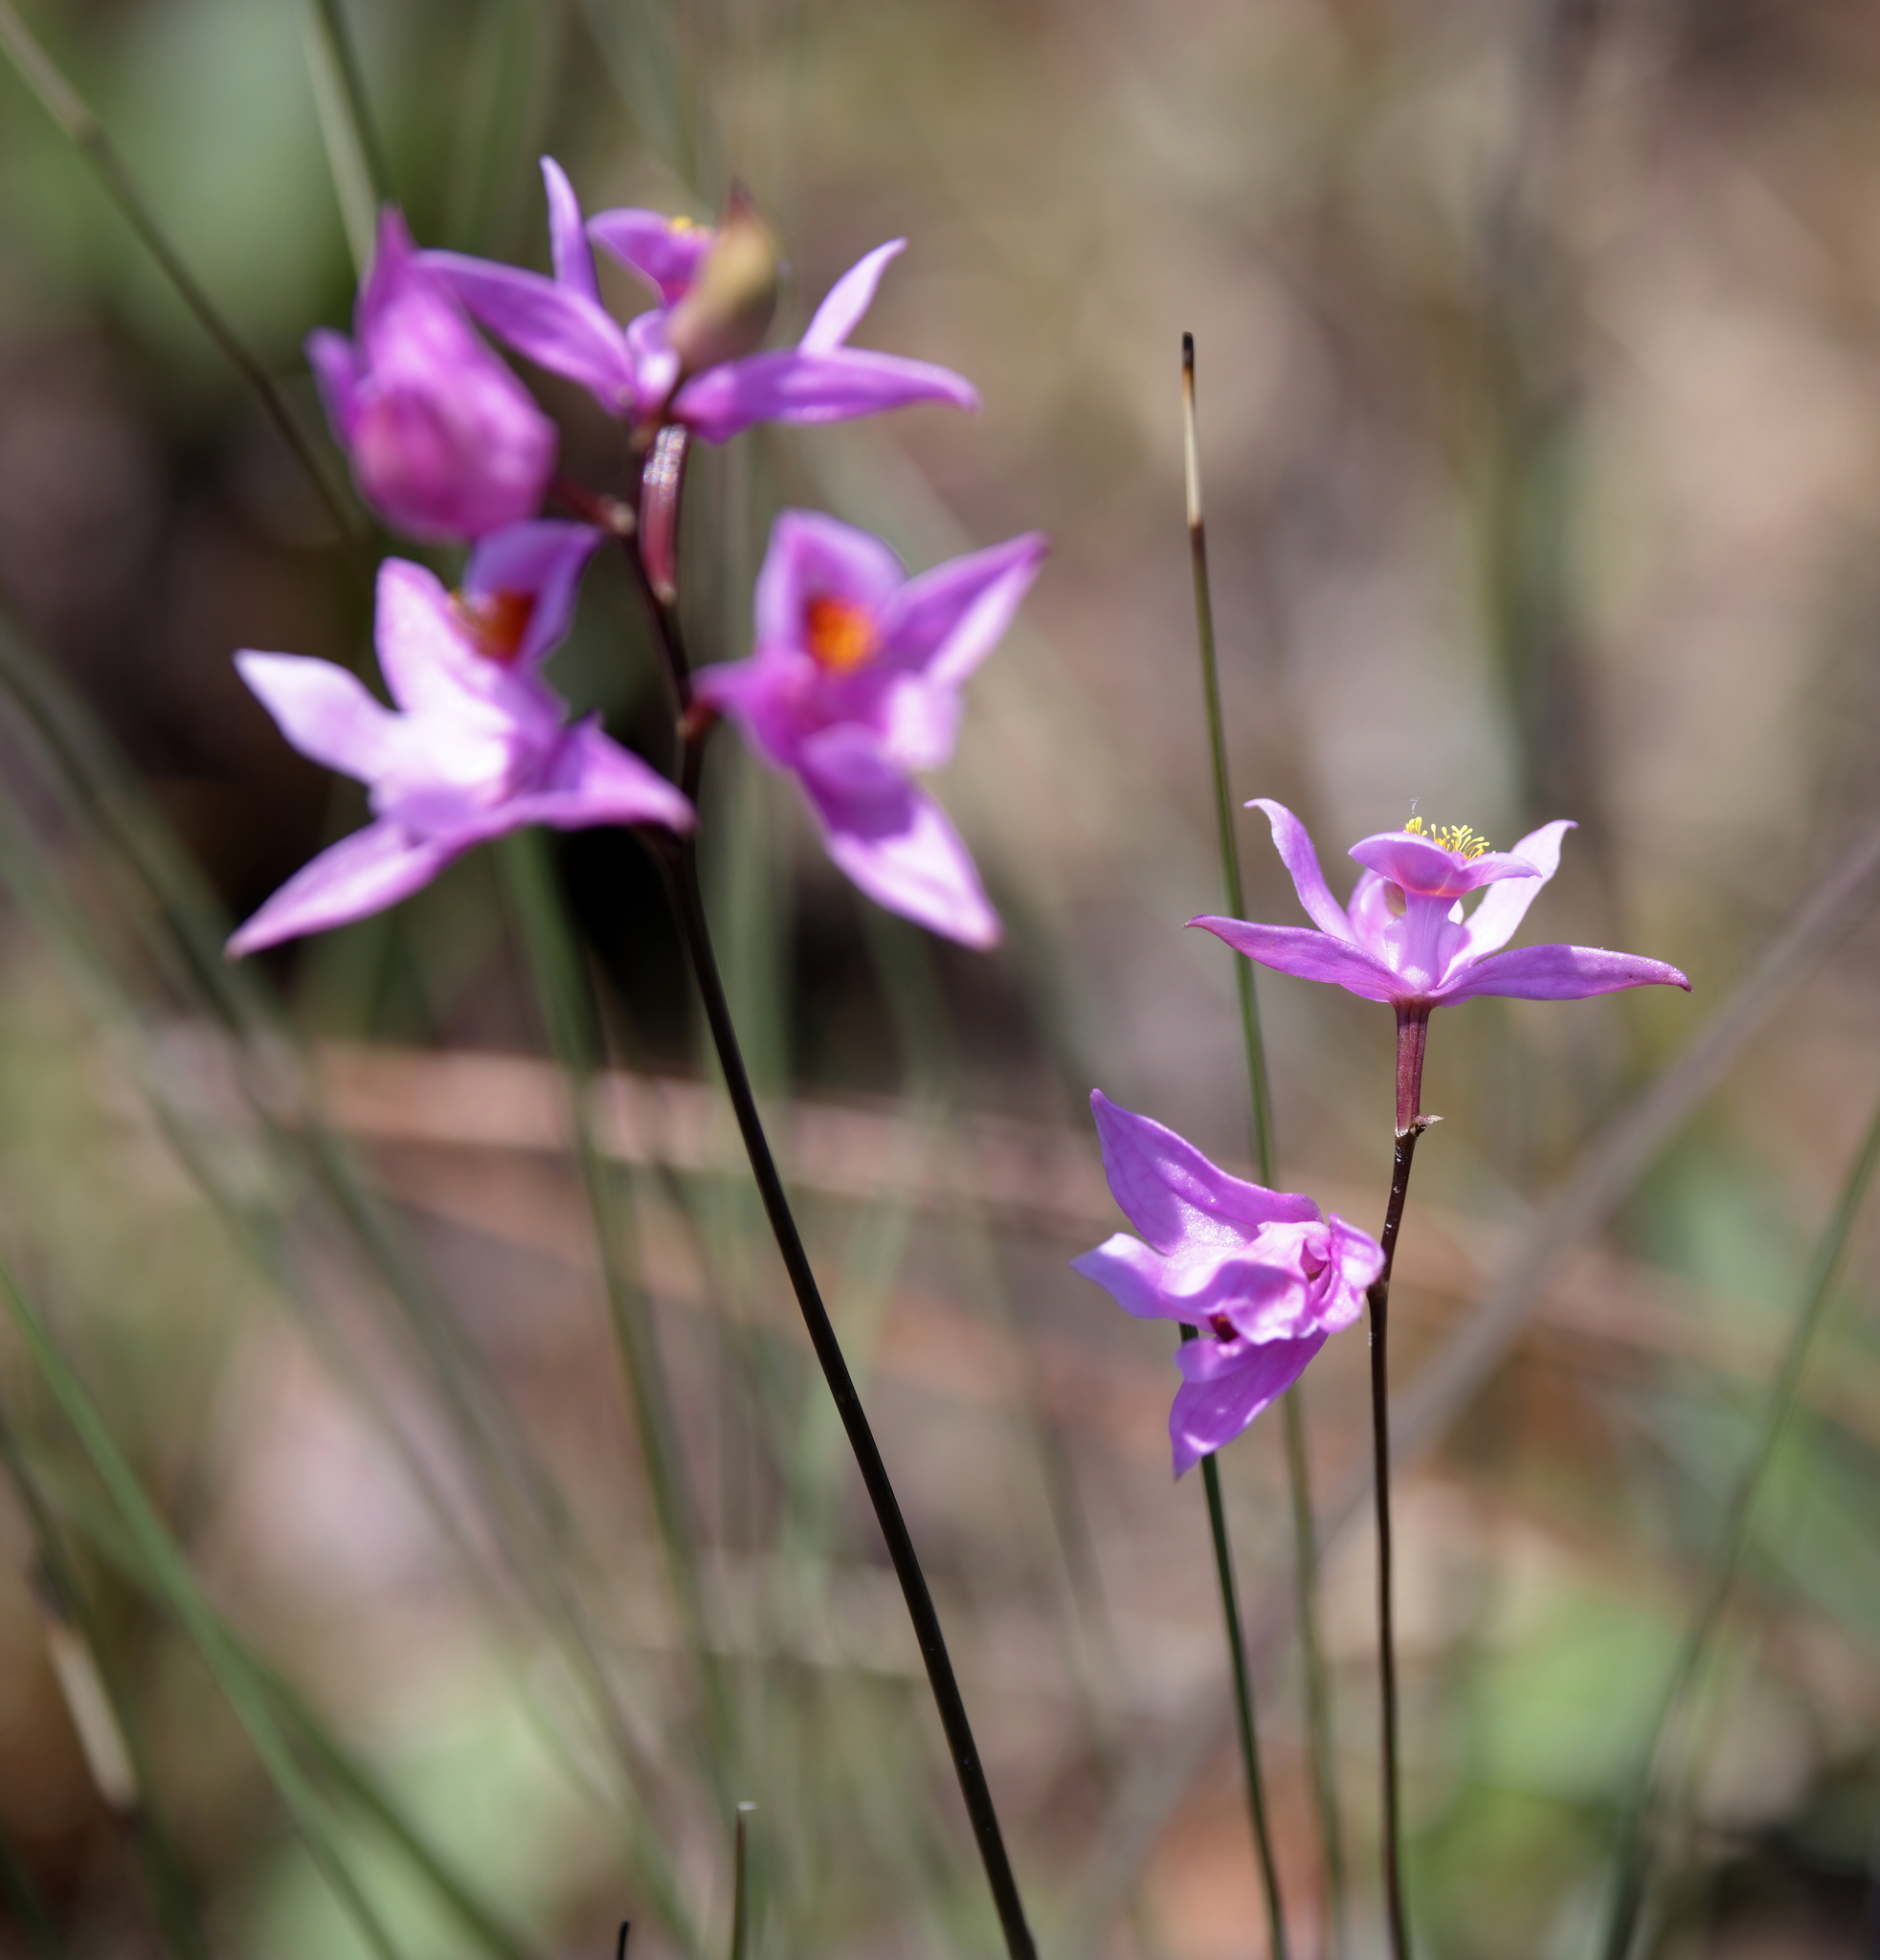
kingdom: Plantae
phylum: Tracheophyta
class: Liliopsida
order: Asparagales
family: Orchidaceae
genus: Calopogon
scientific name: Calopogon barbatus
